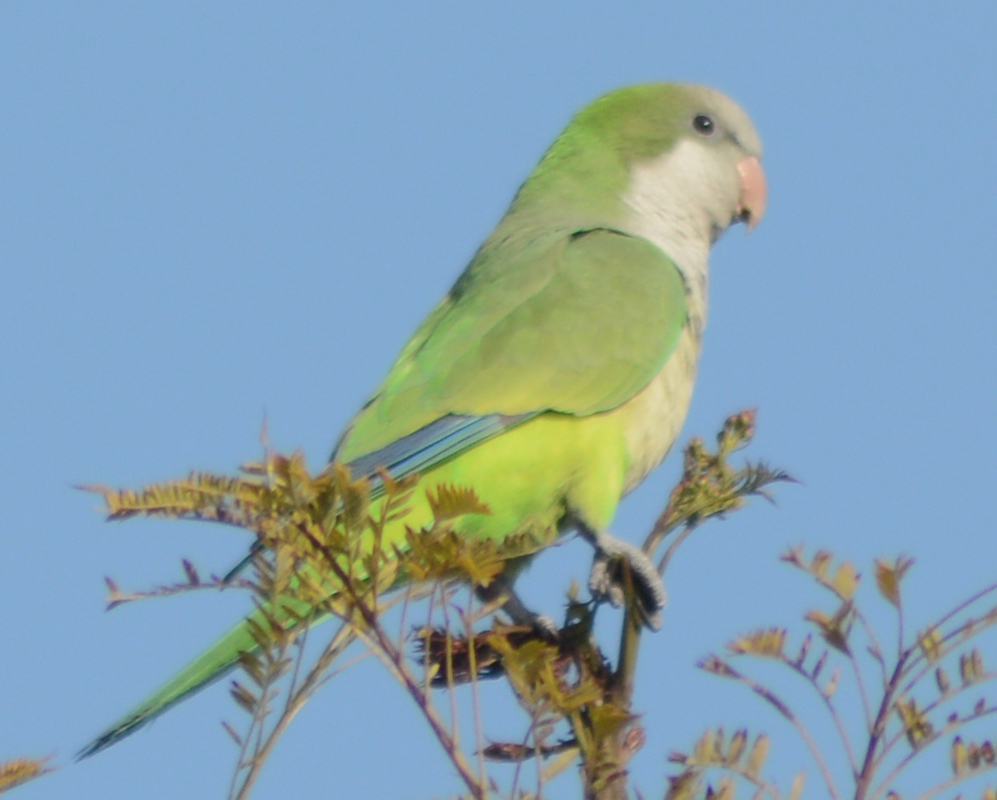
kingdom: Animalia
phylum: Chordata
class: Aves
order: Psittaciformes
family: Psittacidae
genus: Myiopsitta
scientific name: Myiopsitta monachus
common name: Monk parakeet
